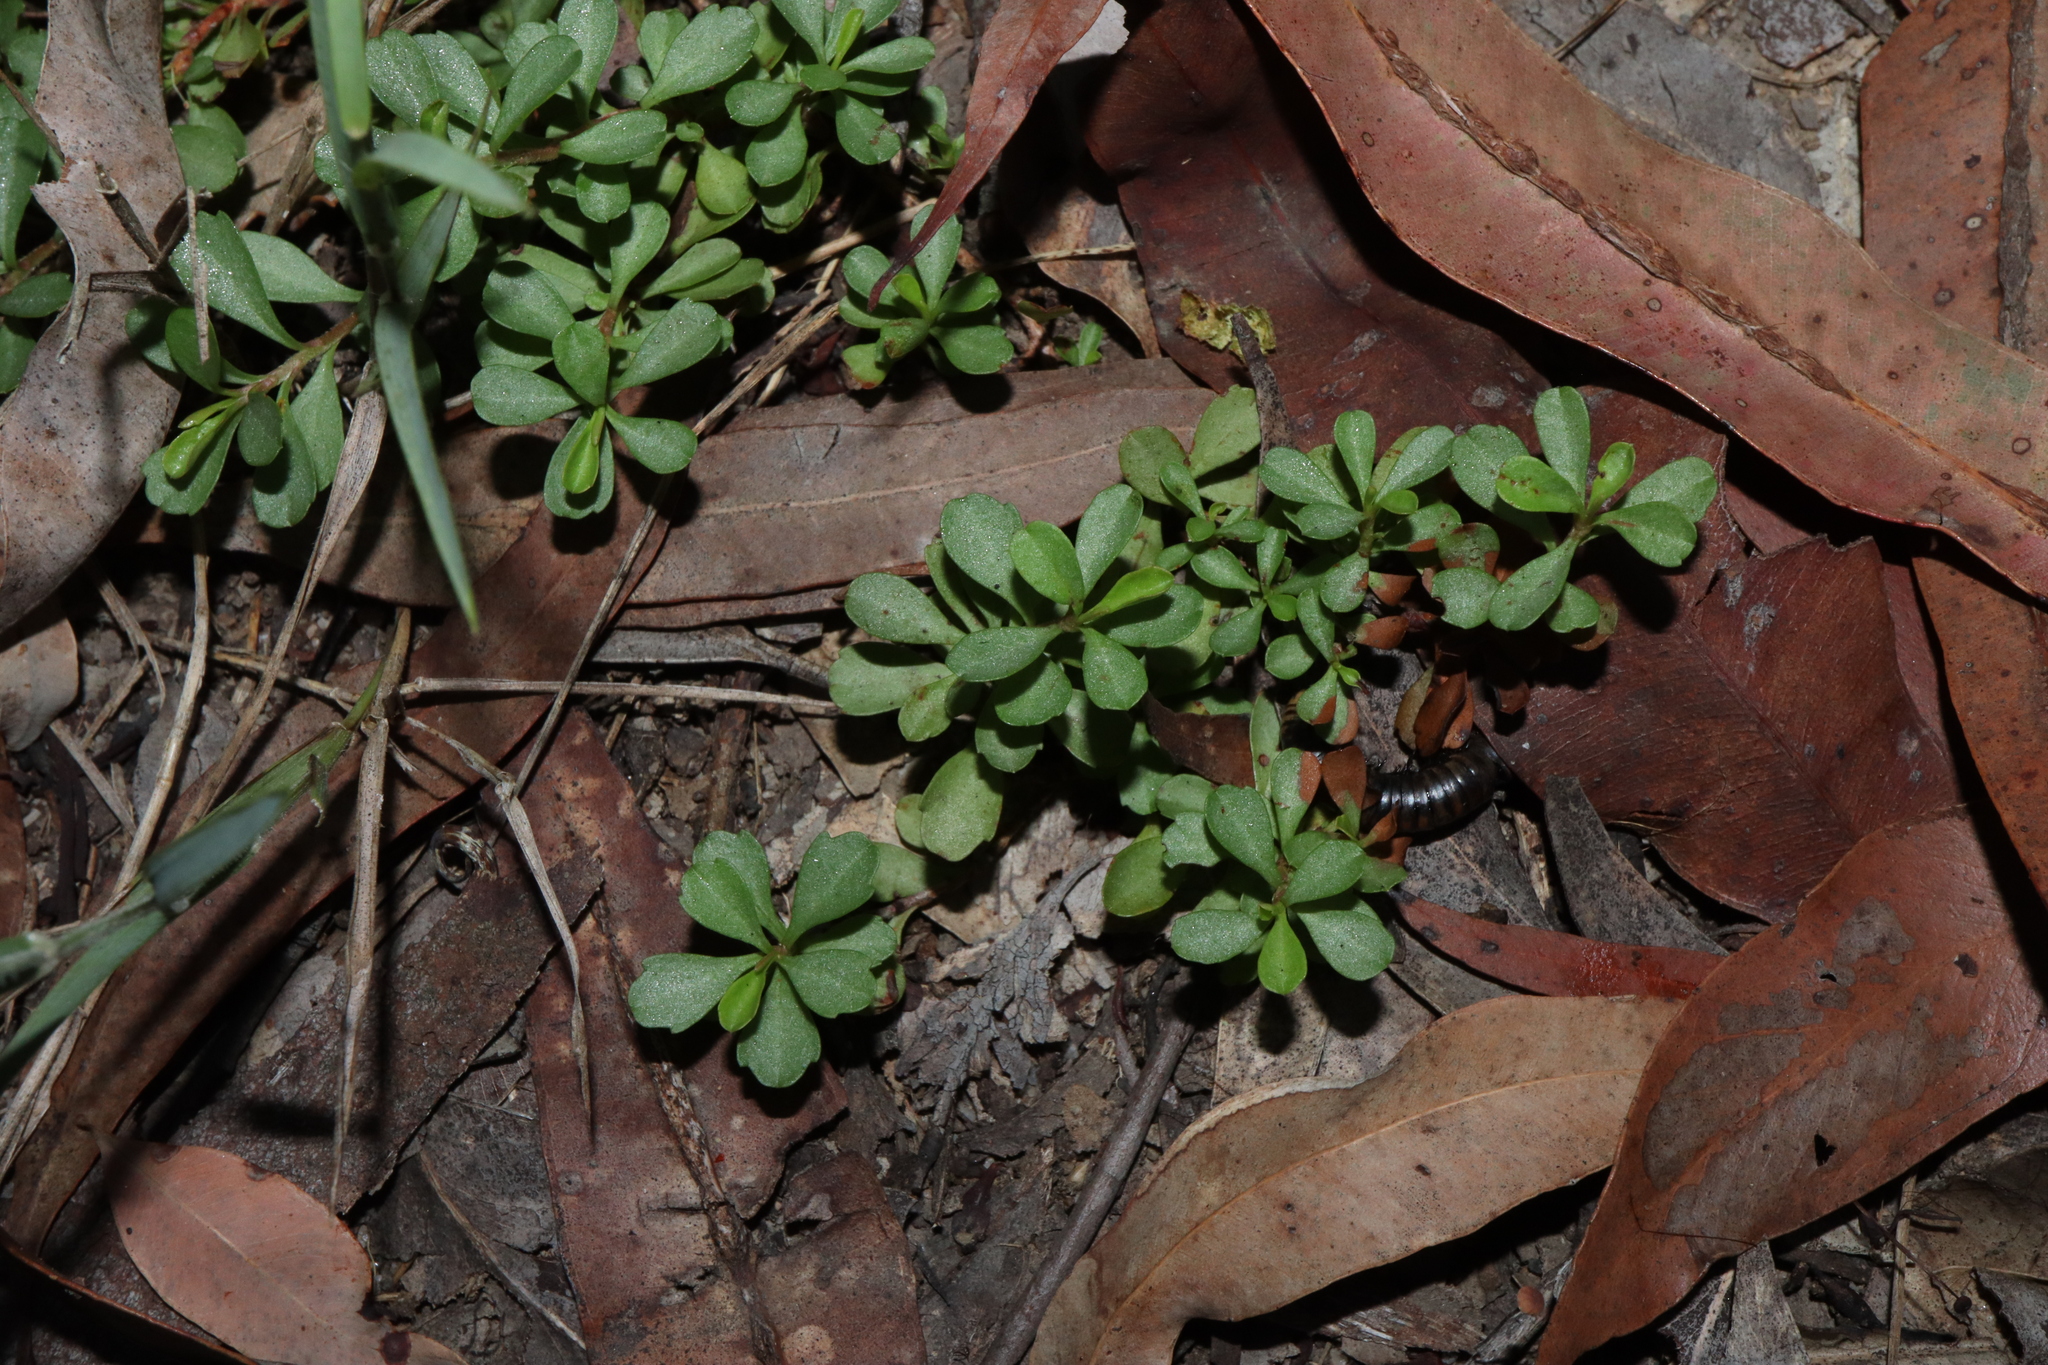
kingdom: Plantae
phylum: Tracheophyta
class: Magnoliopsida
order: Dilleniales
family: Dilleniaceae
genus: Hibbertia
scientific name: Hibbertia diffusa
